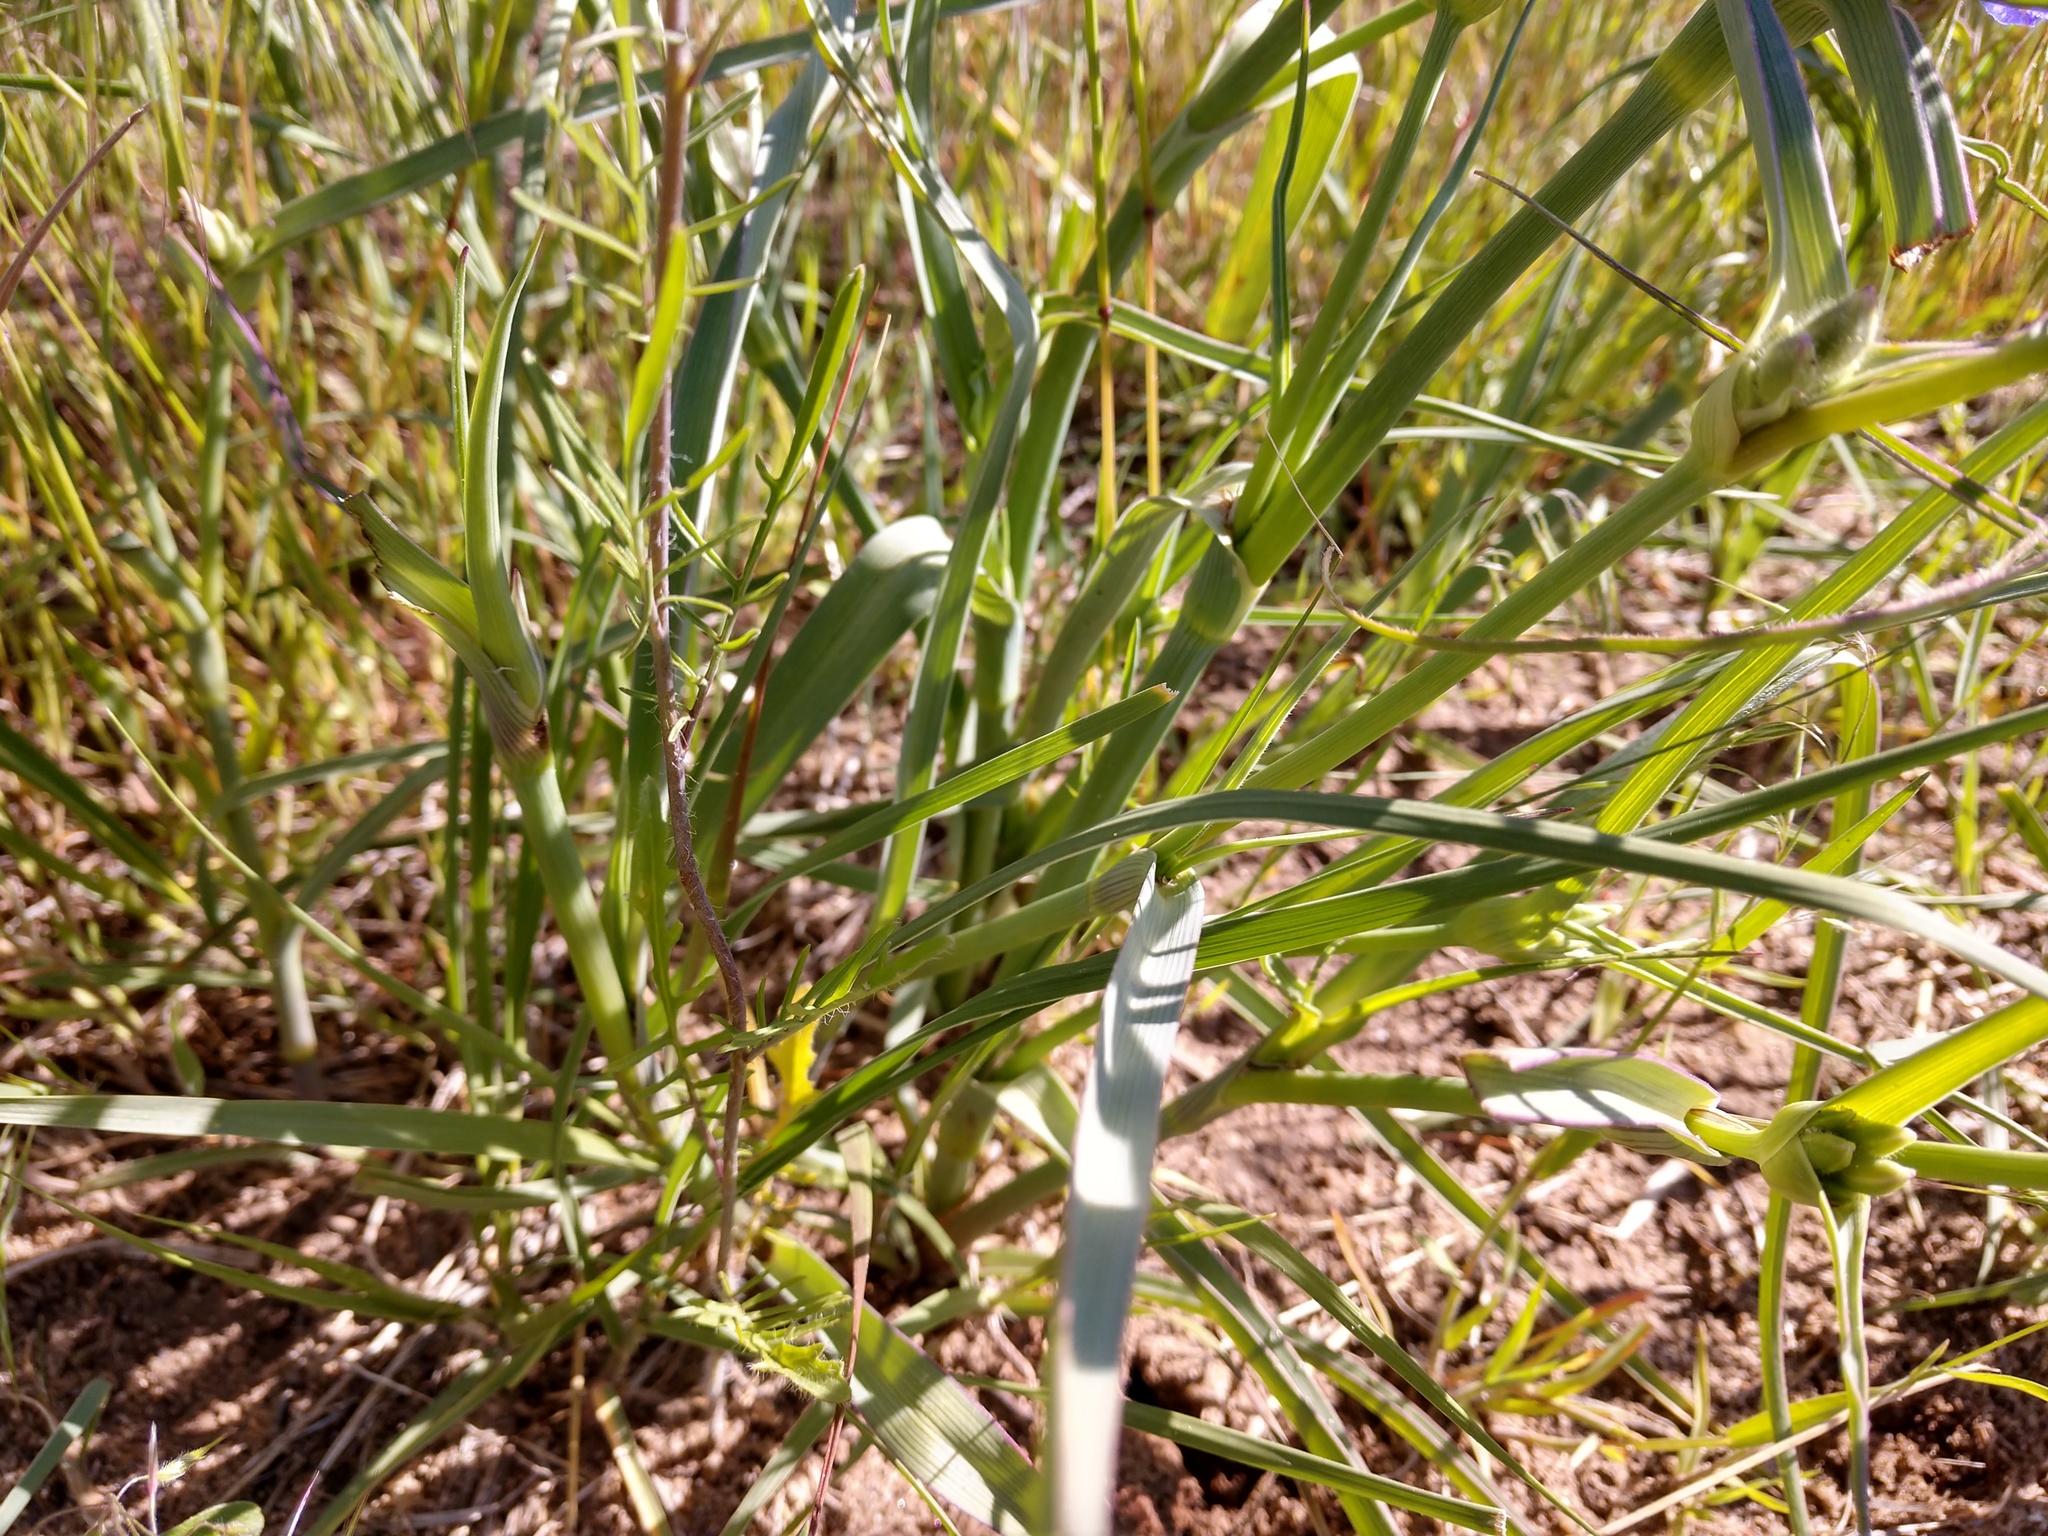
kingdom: Plantae
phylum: Tracheophyta
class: Liliopsida
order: Commelinales
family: Commelinaceae
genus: Tradescantia
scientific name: Tradescantia occidentalis
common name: Prairie spiderwort
